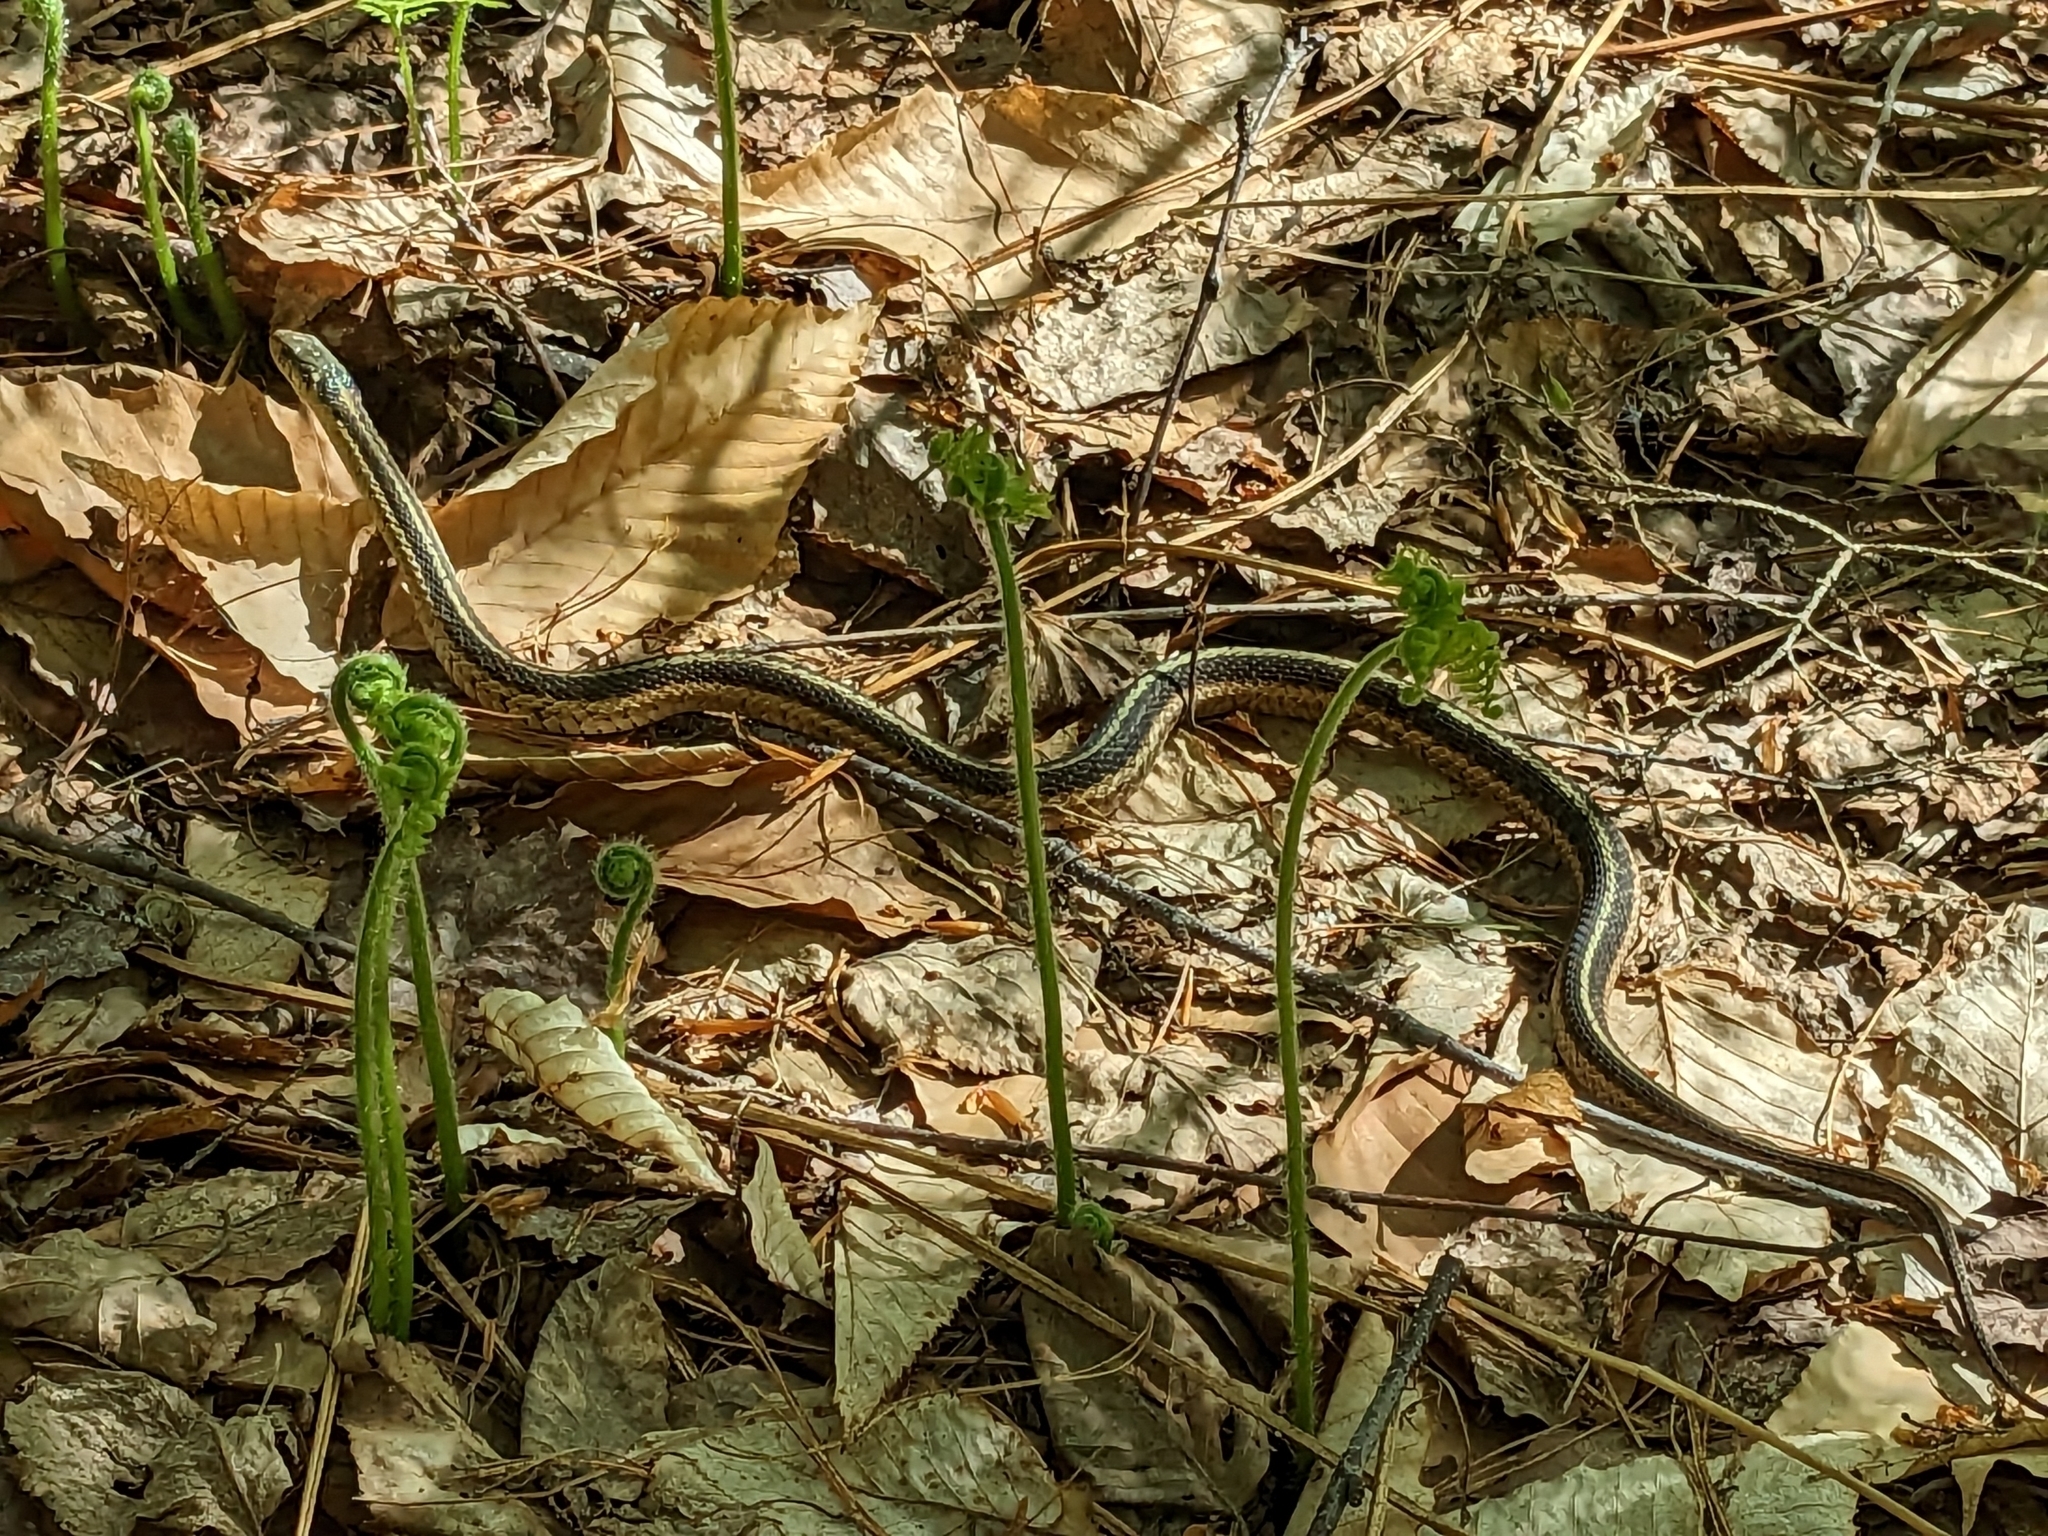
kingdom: Animalia
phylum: Chordata
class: Squamata
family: Colubridae
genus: Thamnophis
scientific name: Thamnophis sirtalis
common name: Common garter snake
